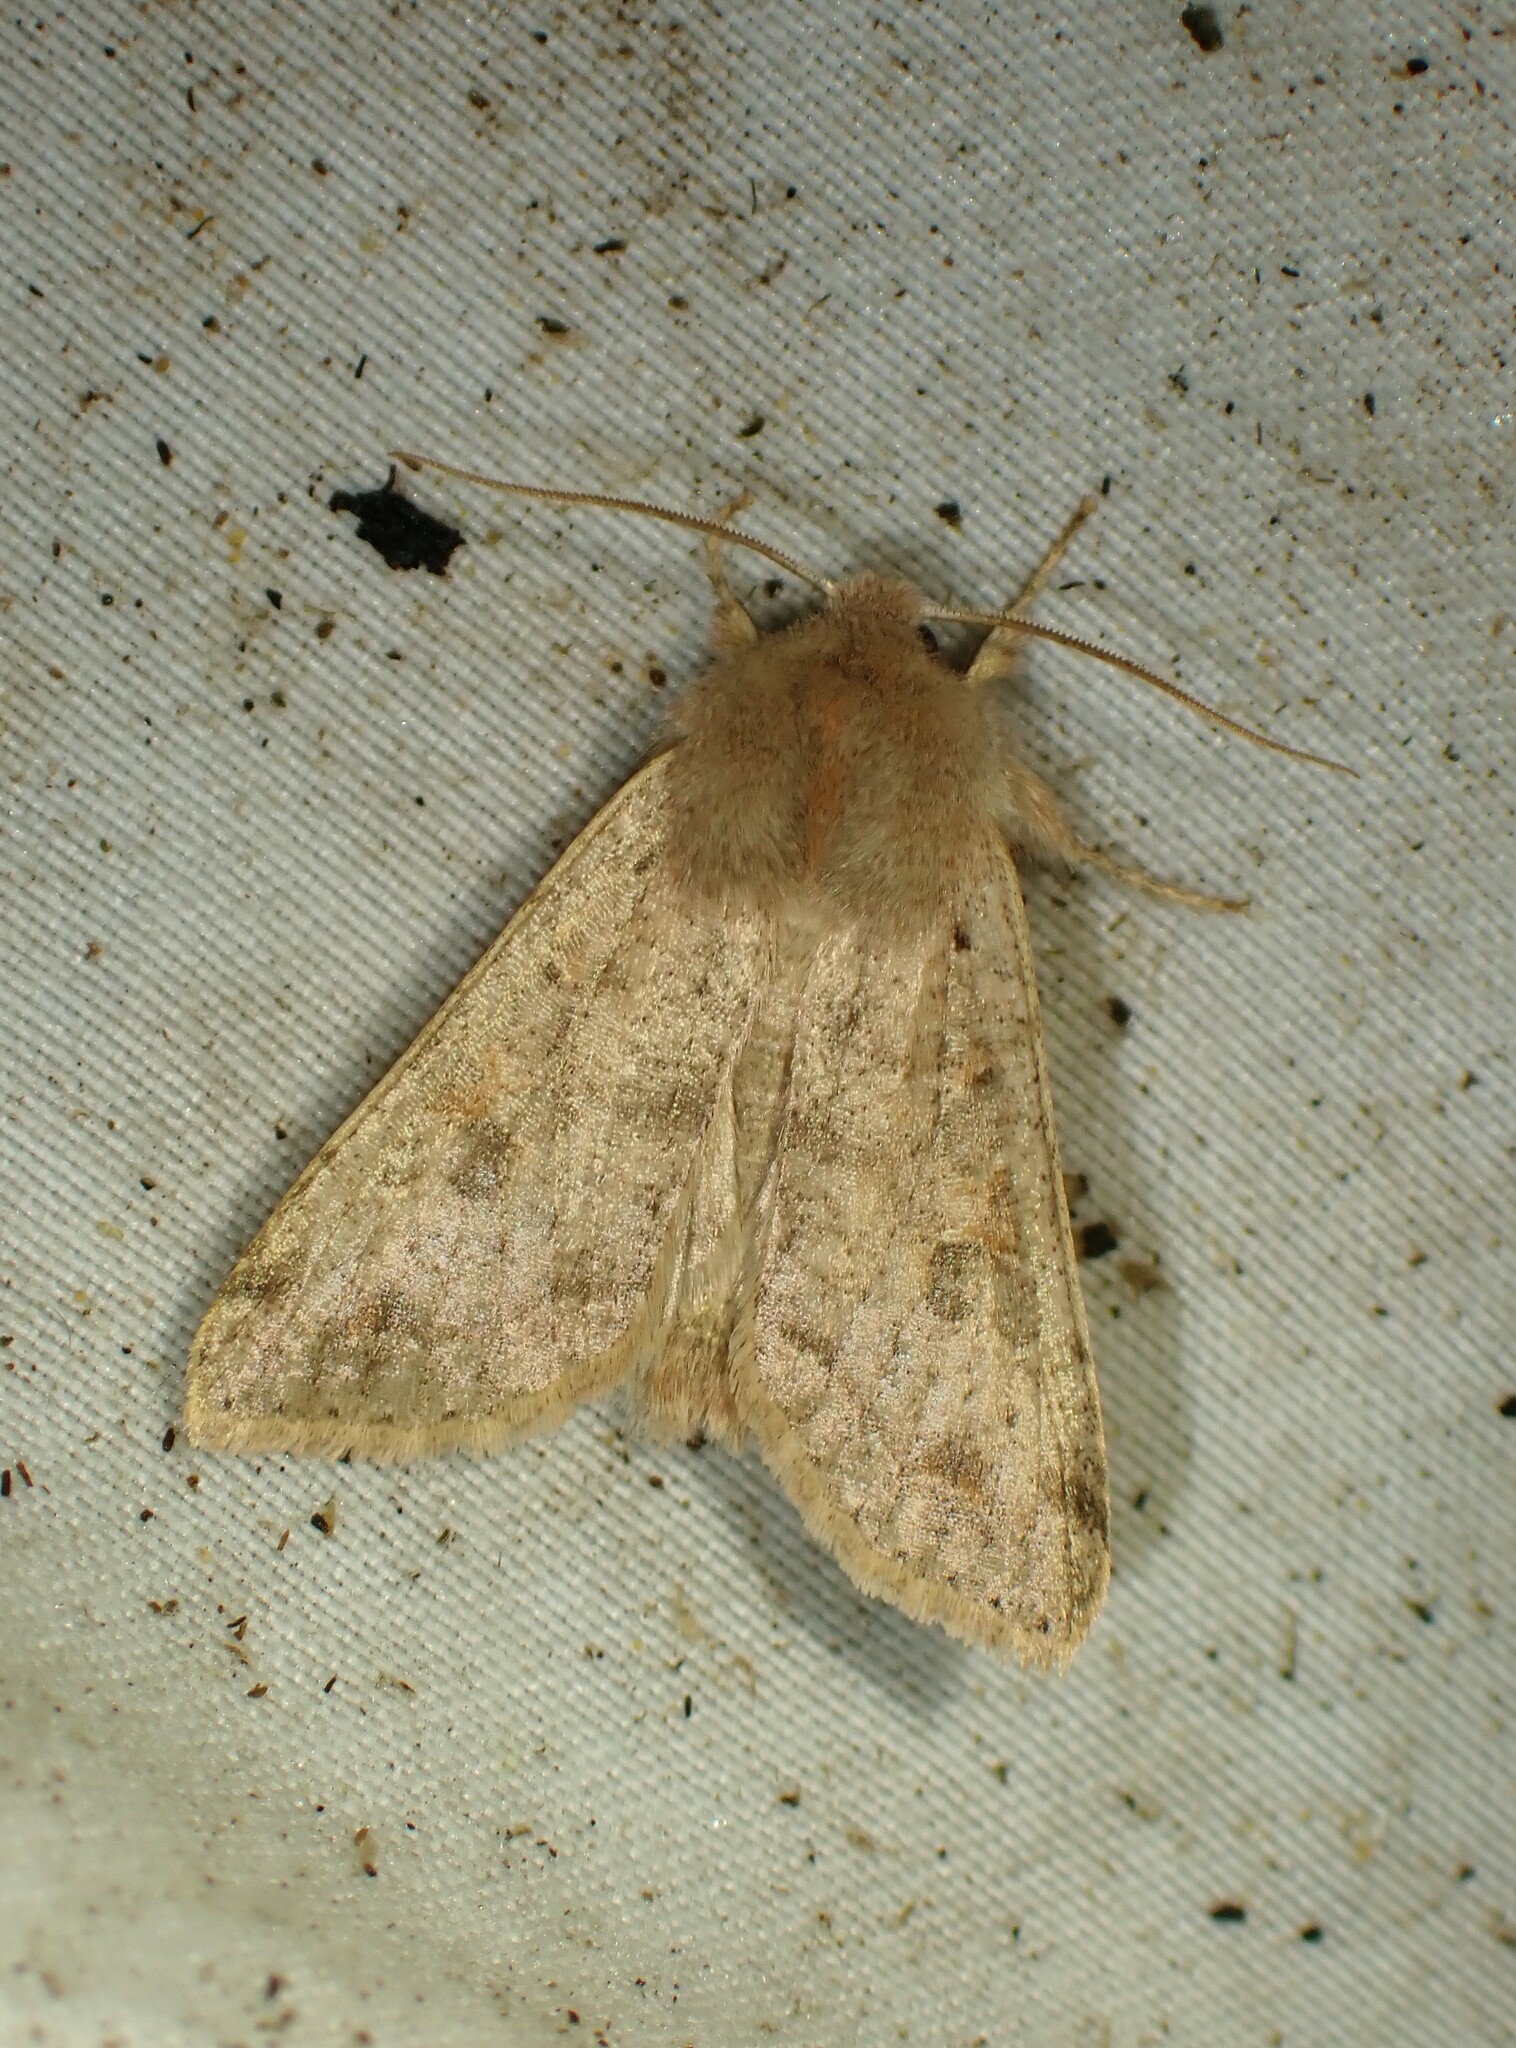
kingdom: Animalia
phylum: Arthropoda
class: Insecta
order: Lepidoptera
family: Noctuidae
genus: Orthosia
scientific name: Orthosia hibisci
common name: Green fruitworm
